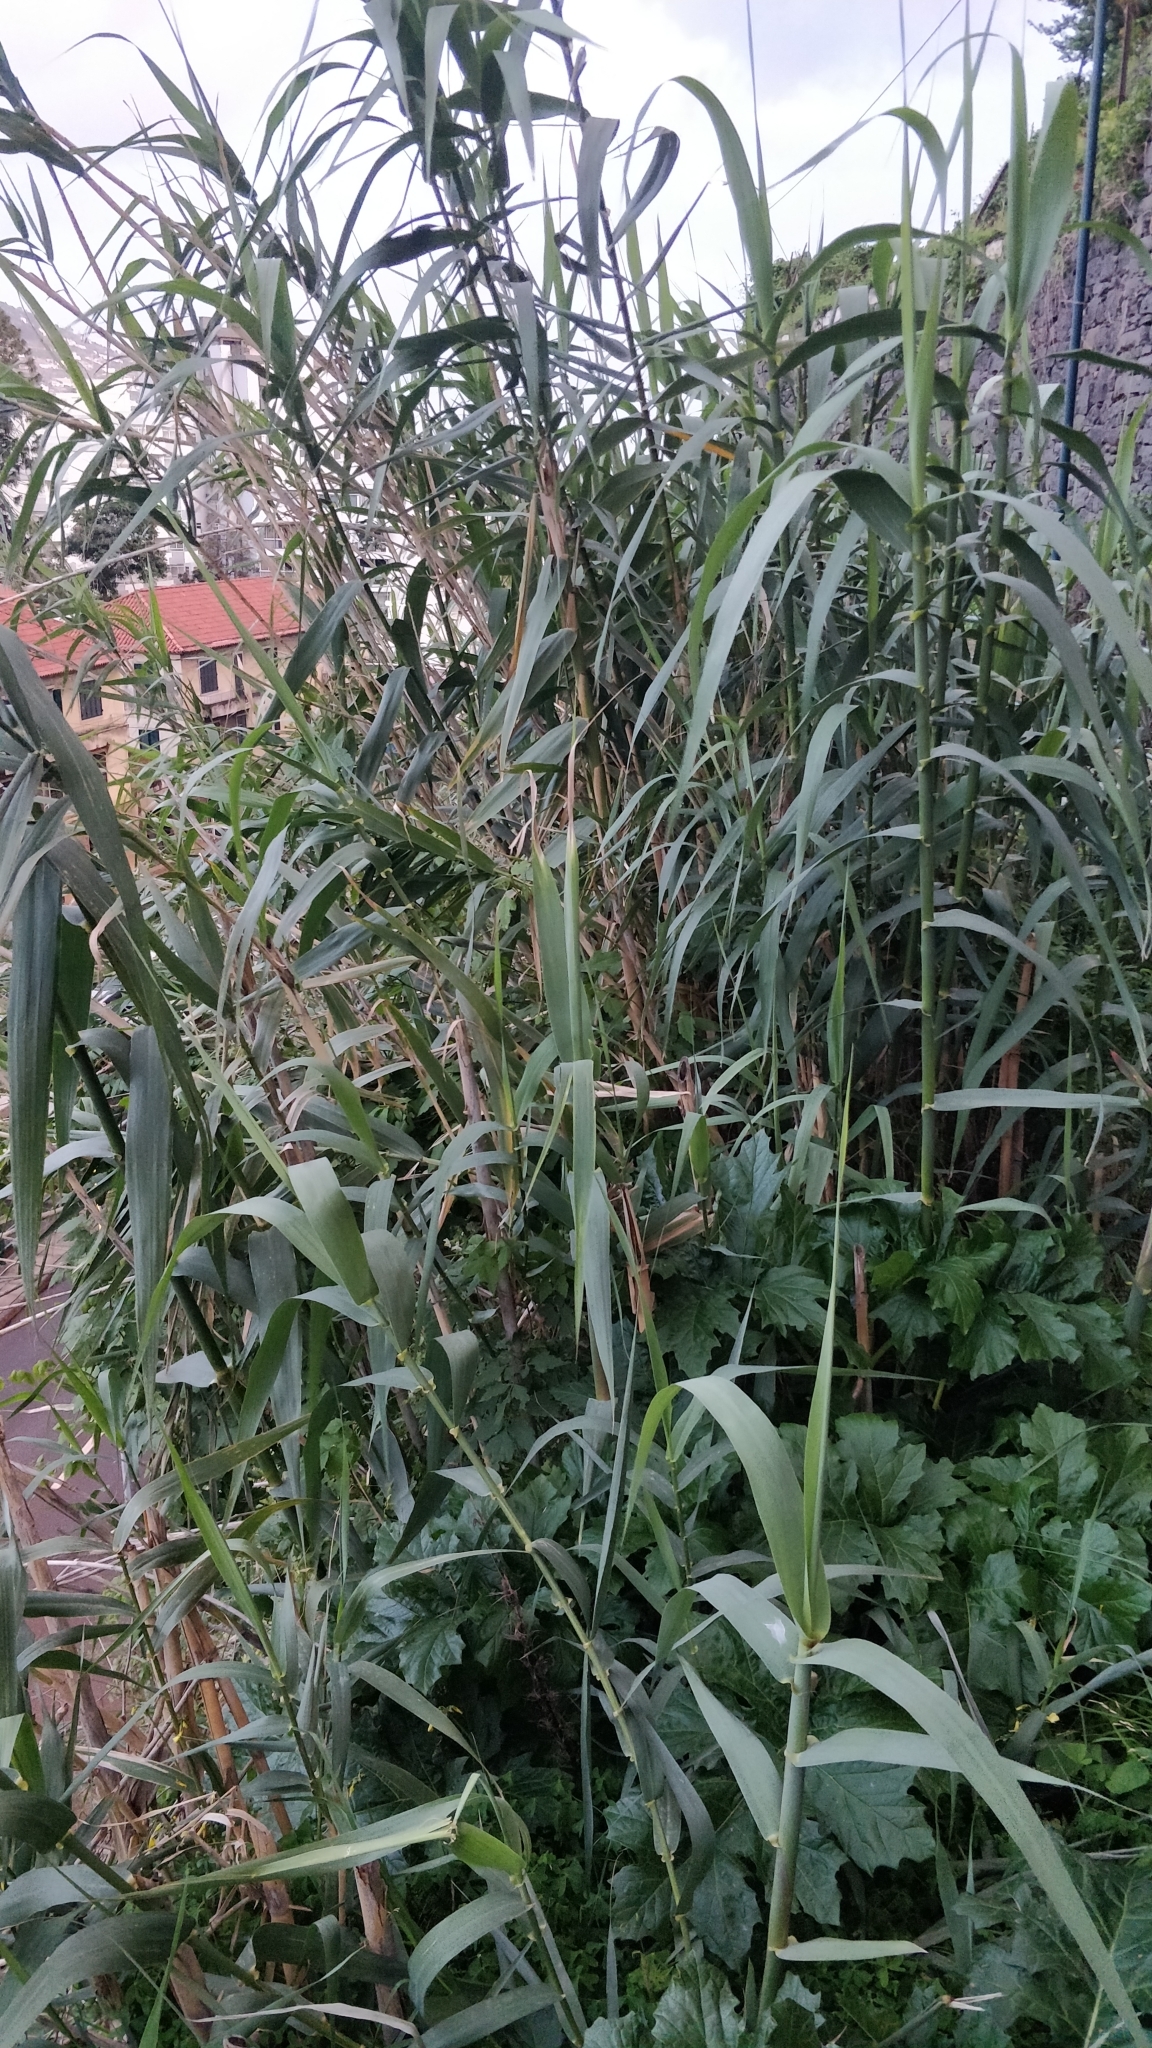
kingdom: Plantae
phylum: Tracheophyta
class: Liliopsida
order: Poales
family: Poaceae
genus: Arundo
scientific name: Arundo donax
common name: Giant reed
